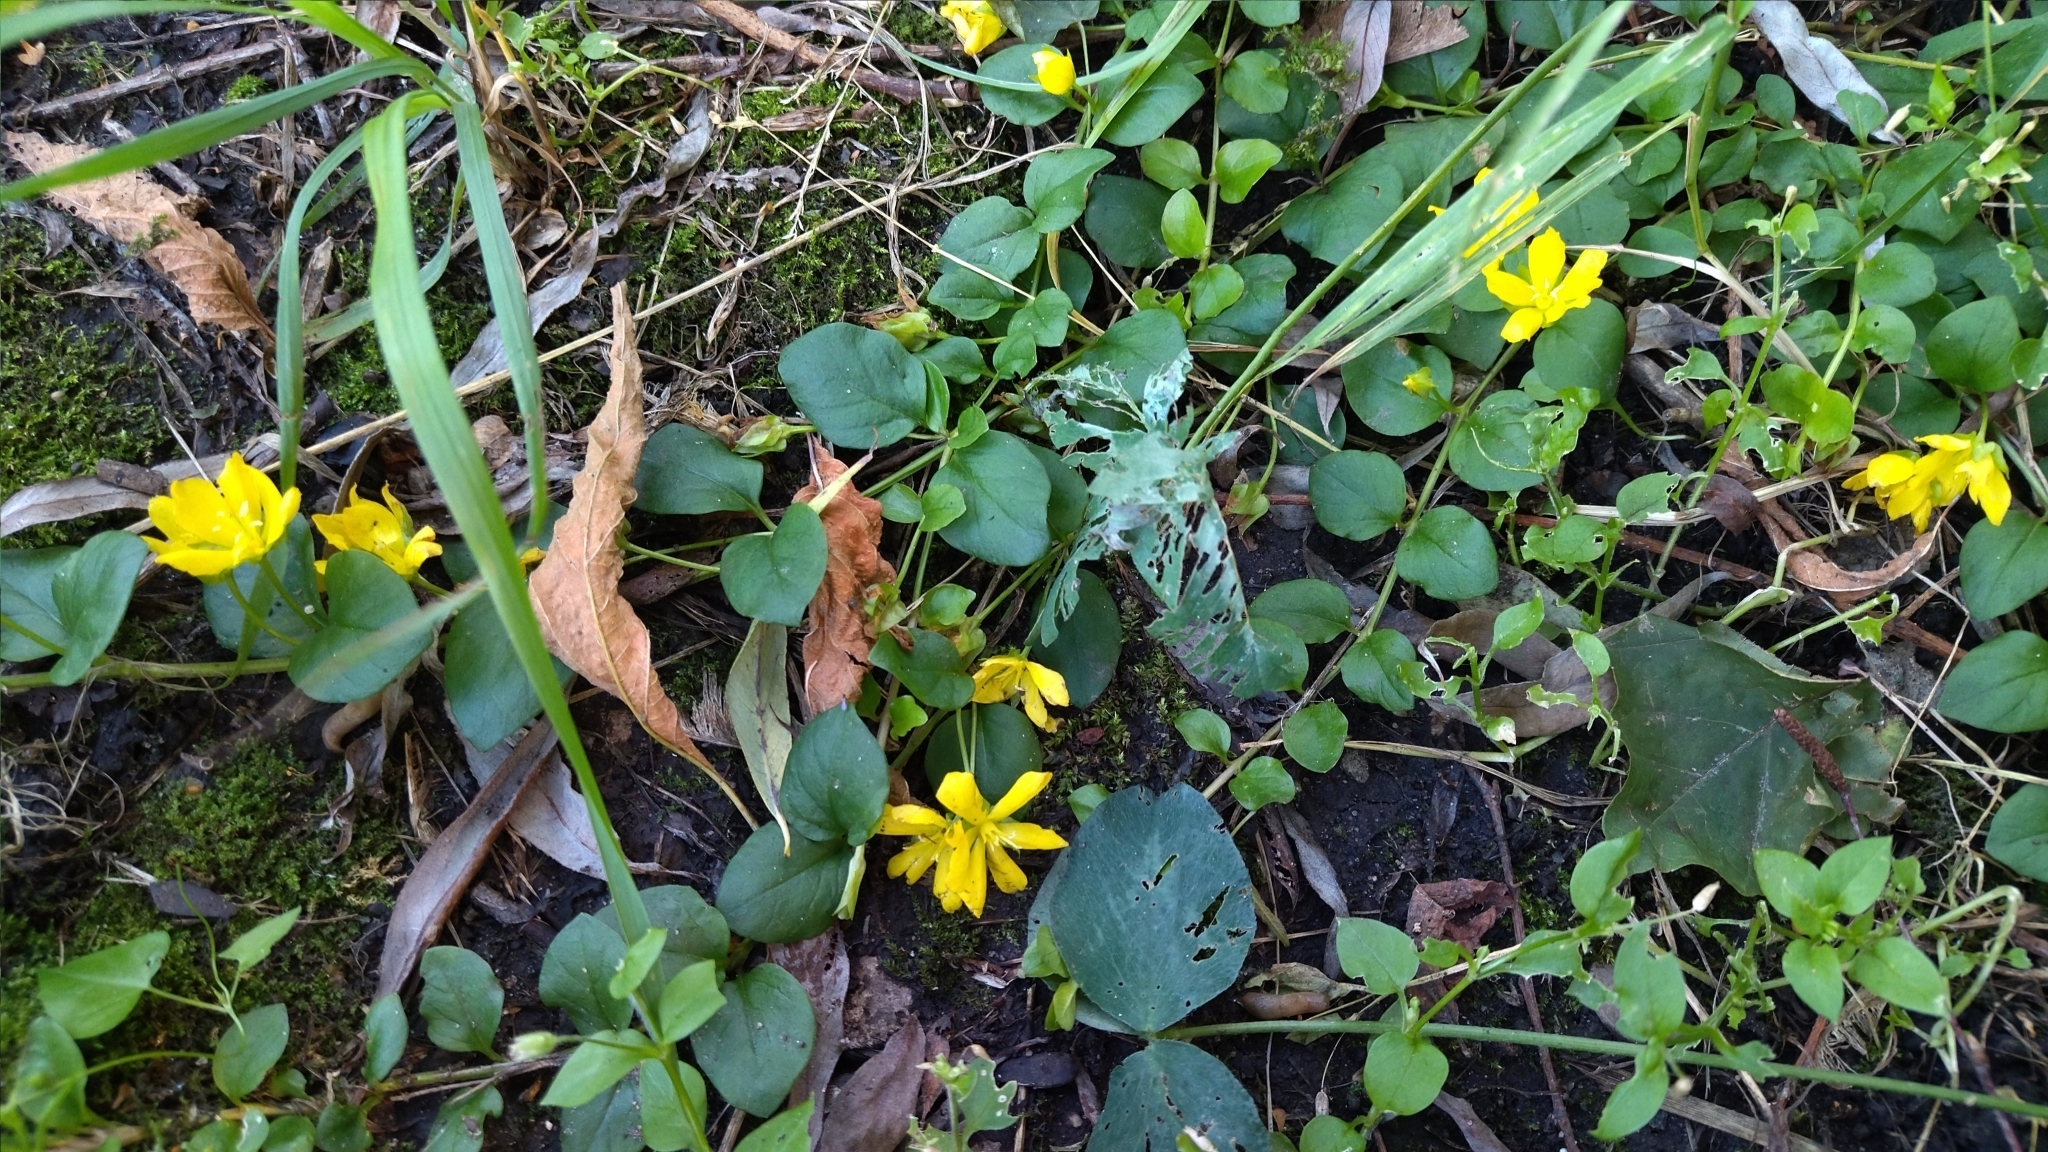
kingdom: Plantae
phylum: Tracheophyta
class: Magnoliopsida
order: Ericales
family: Primulaceae
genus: Lysimachia
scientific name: Lysimachia nummularia
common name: Moneywort
